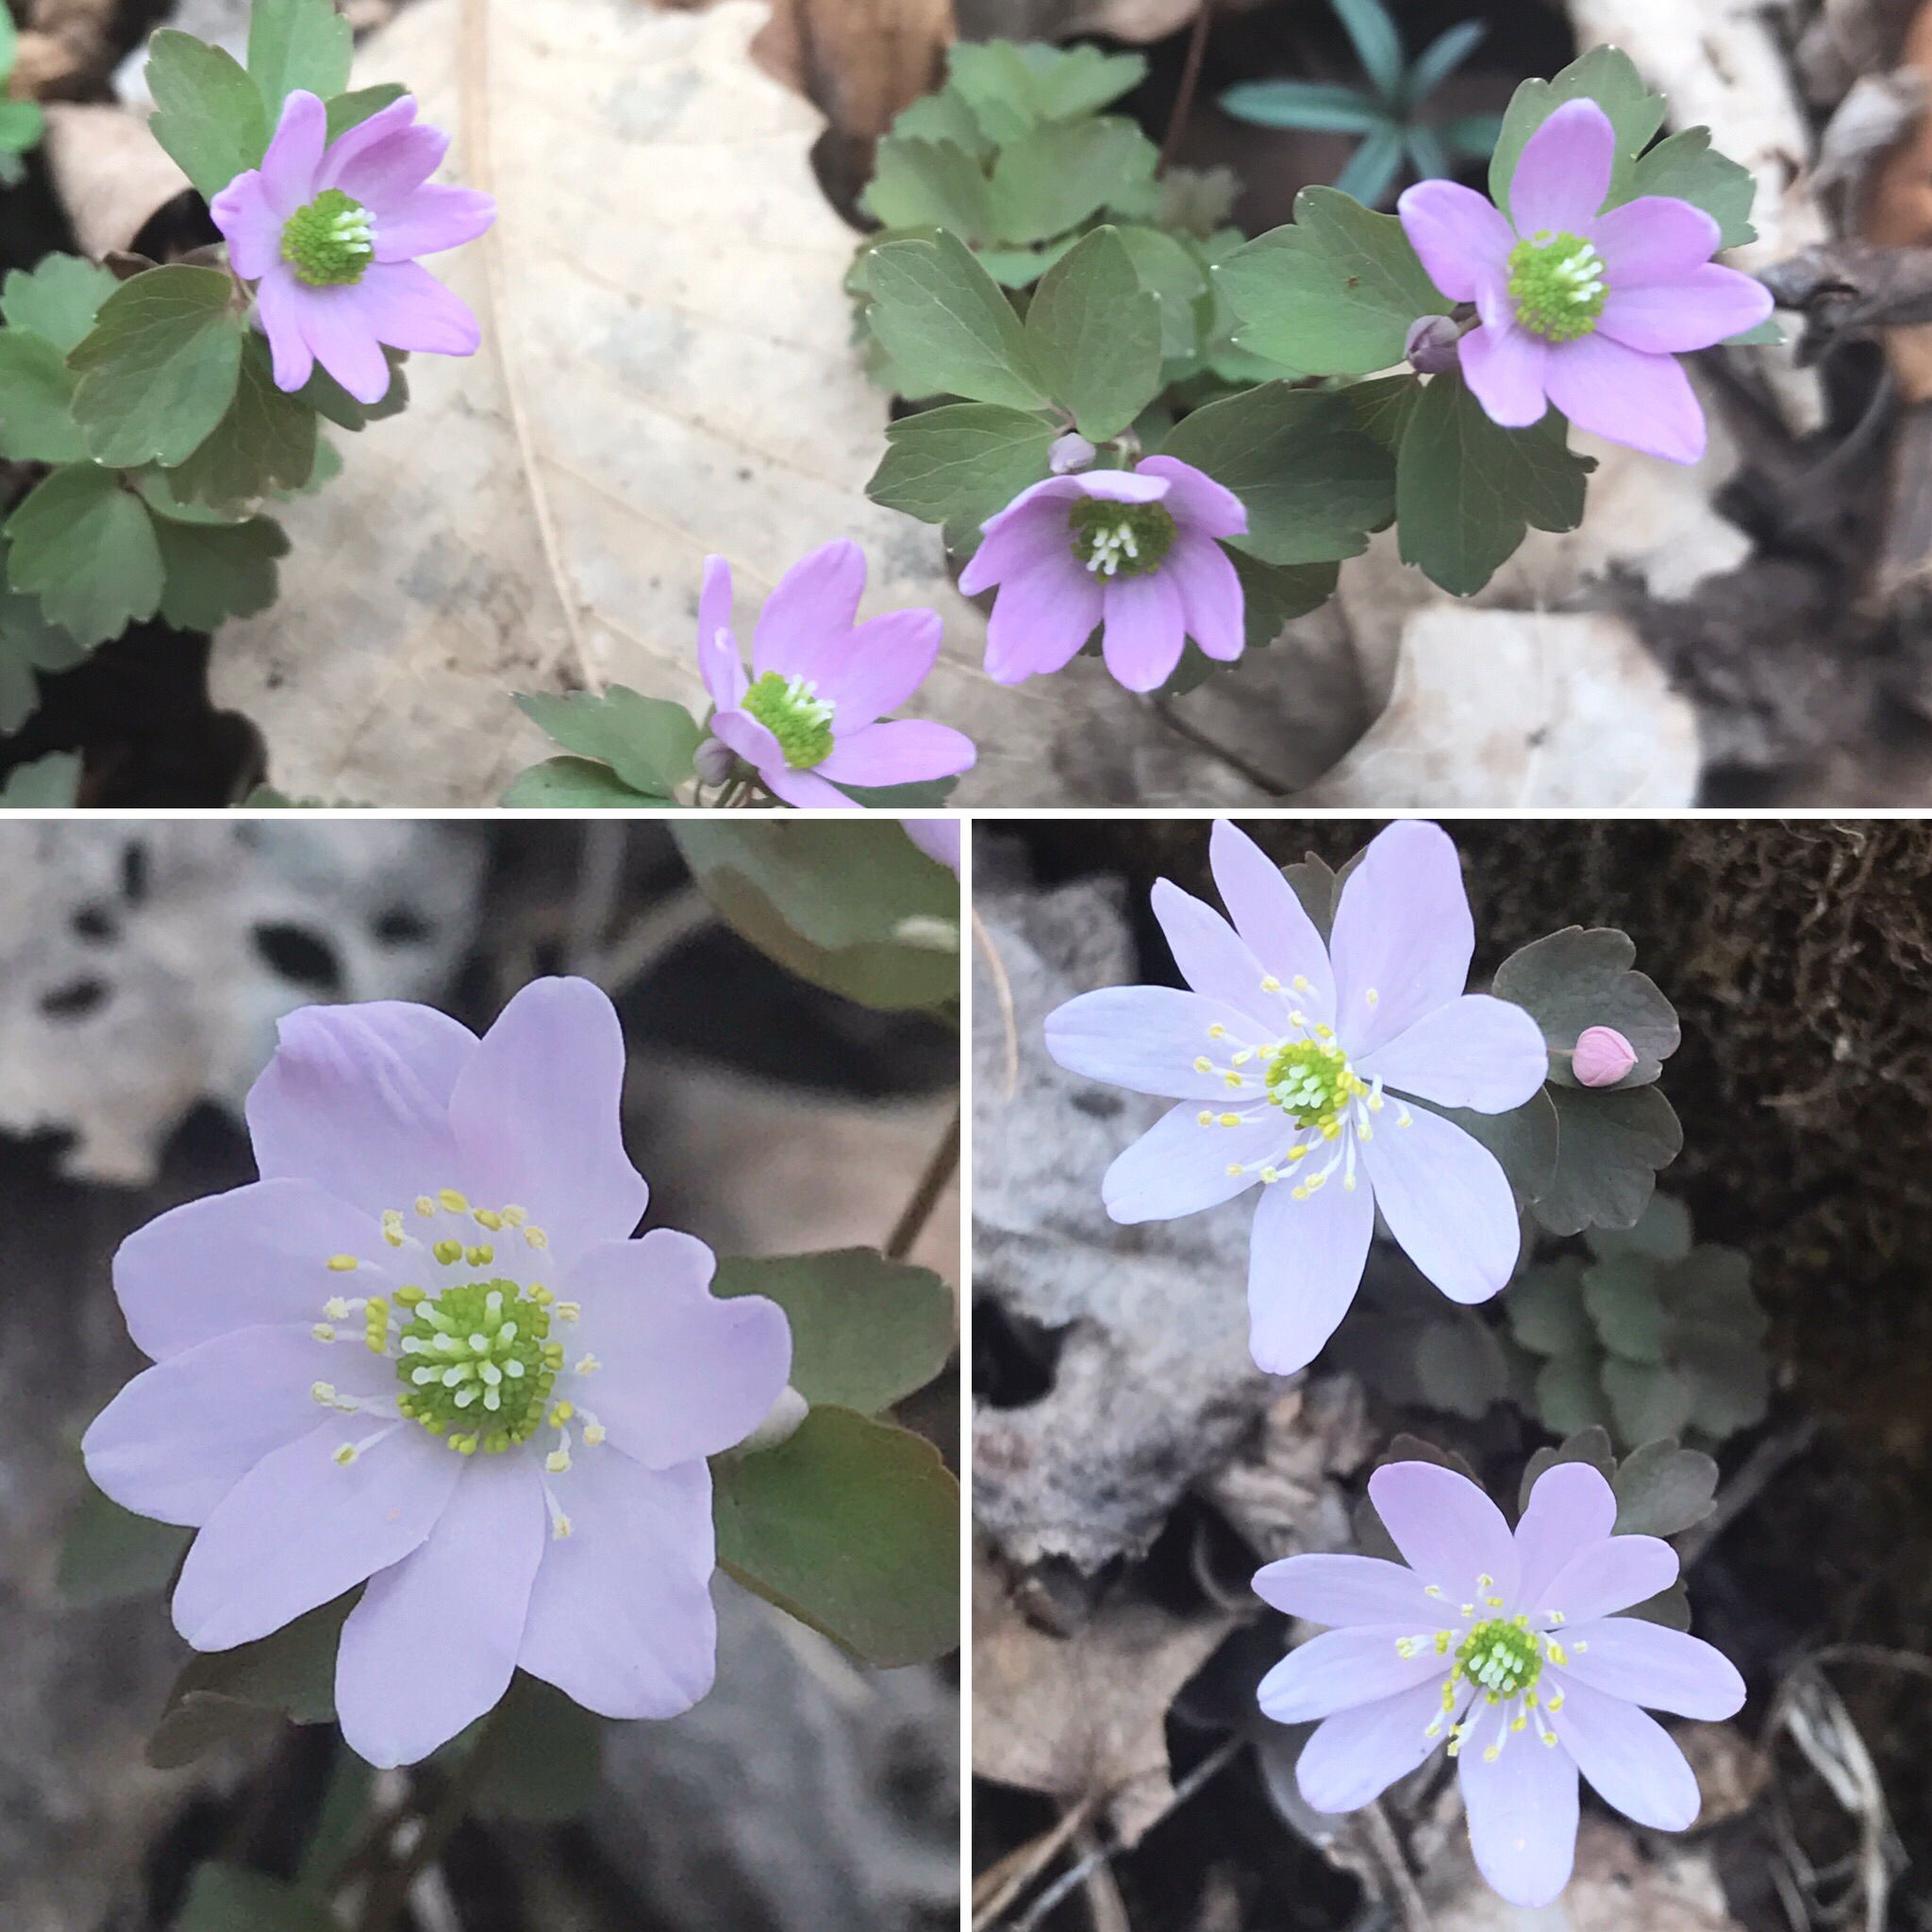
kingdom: Plantae
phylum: Tracheophyta
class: Magnoliopsida
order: Ranunculales
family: Ranunculaceae
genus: Thalictrum
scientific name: Thalictrum thalictroides
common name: Rue-anemone
